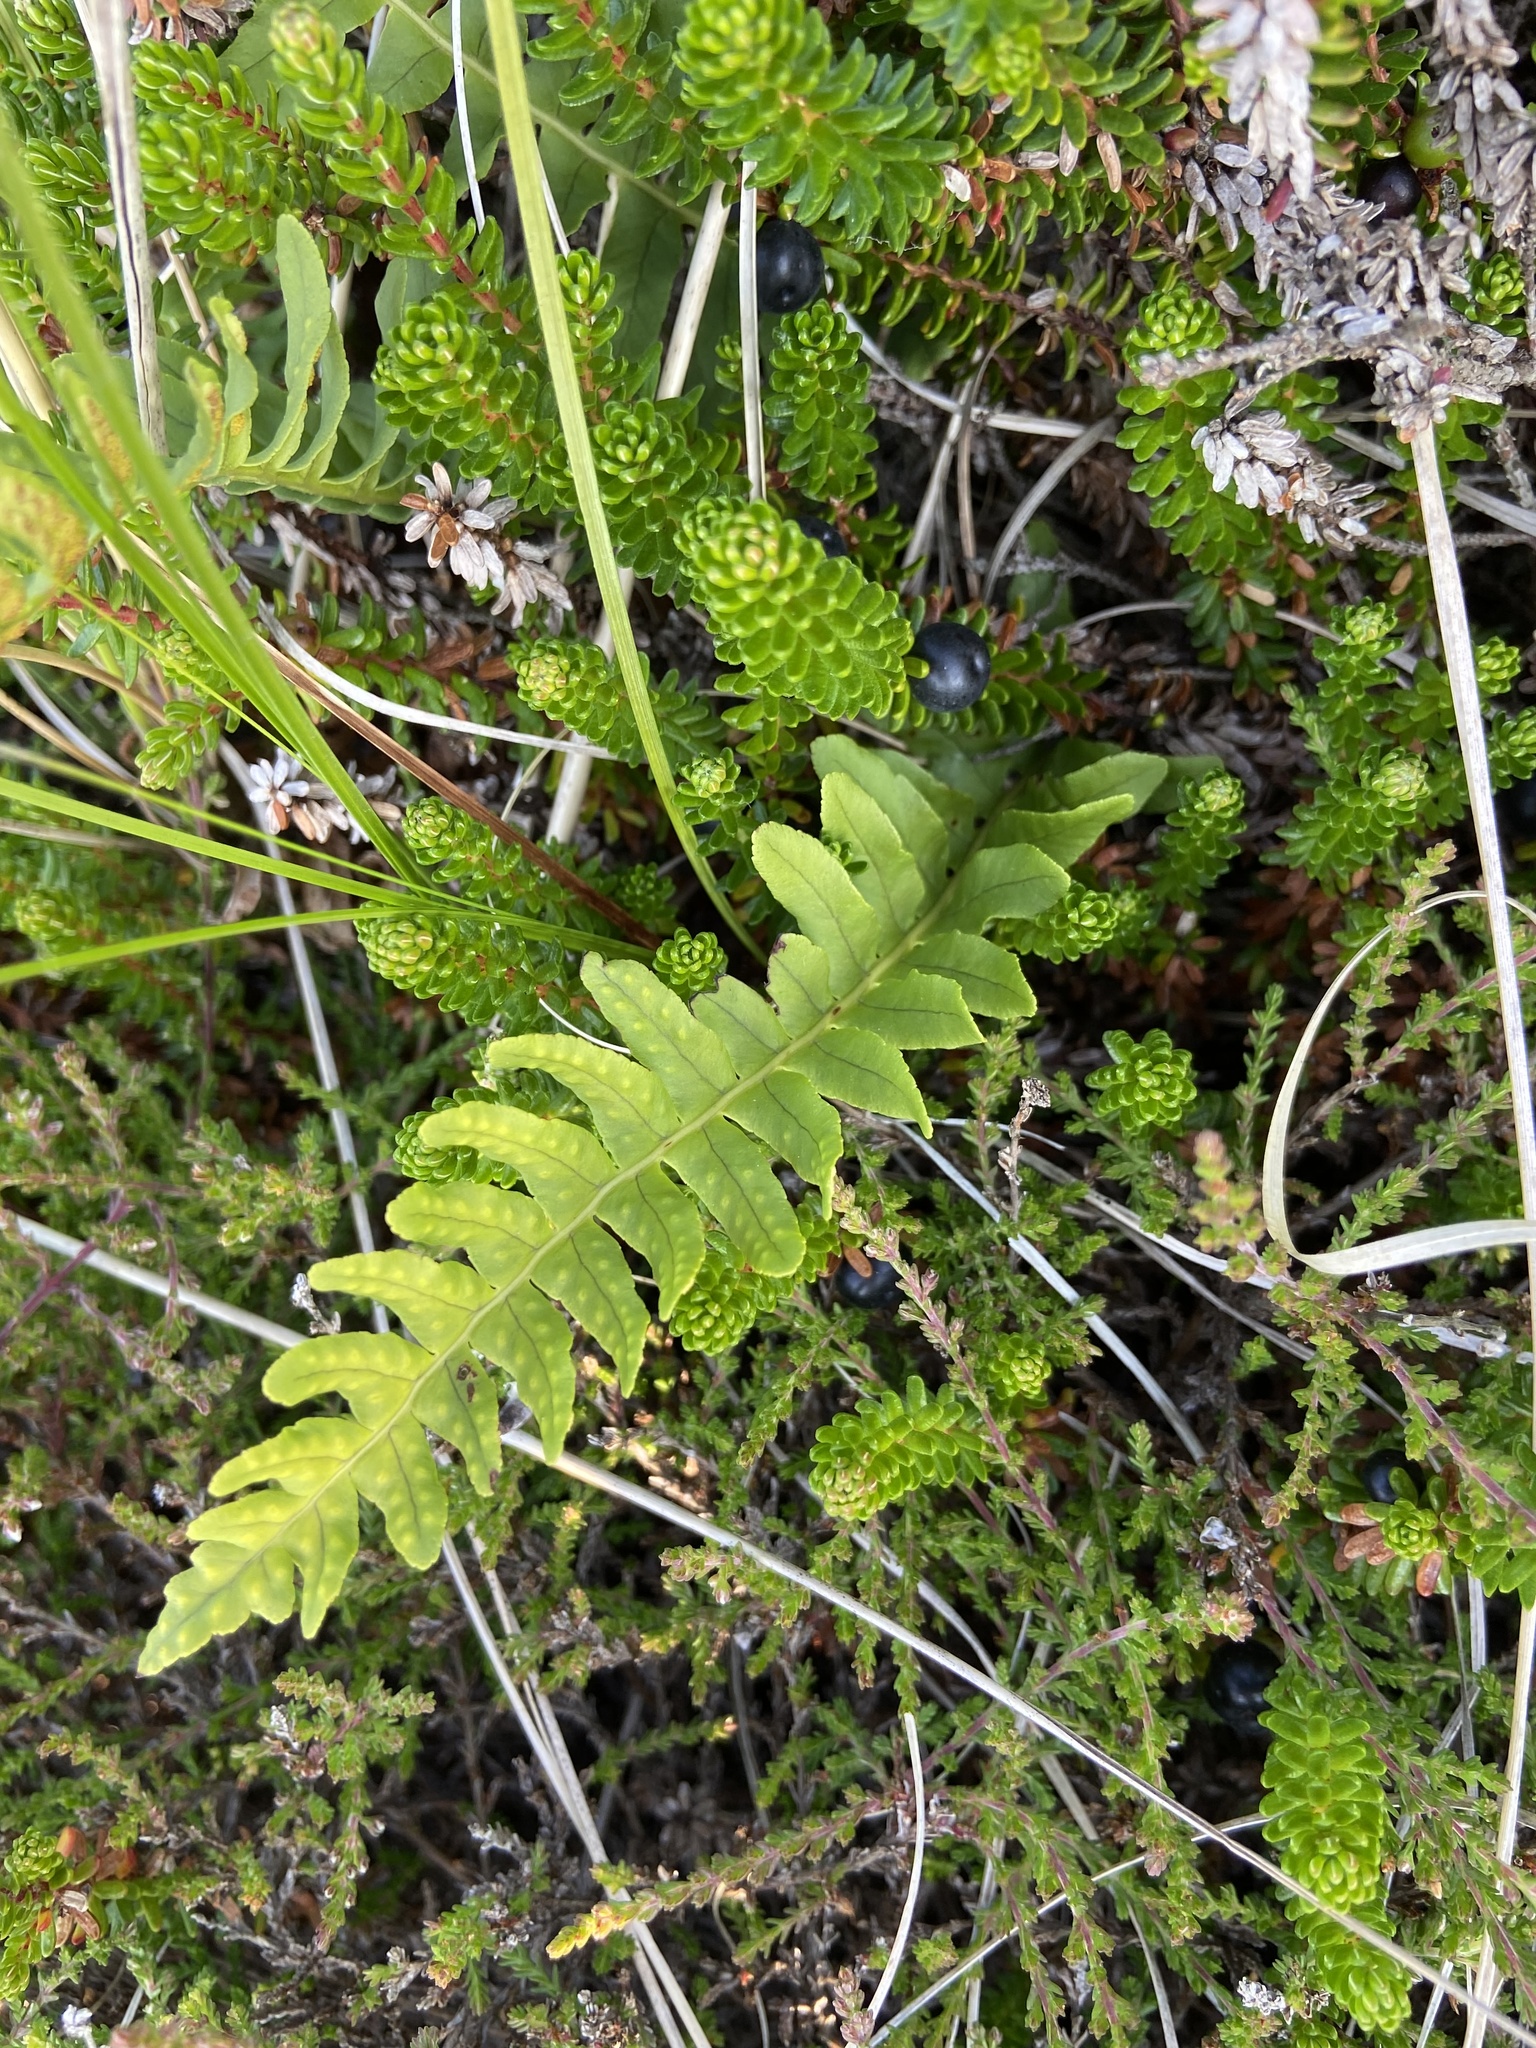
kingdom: Plantae
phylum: Tracheophyta
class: Polypodiopsida
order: Polypodiales
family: Polypodiaceae
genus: Polypodium
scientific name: Polypodium vulgare
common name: Common polypody
